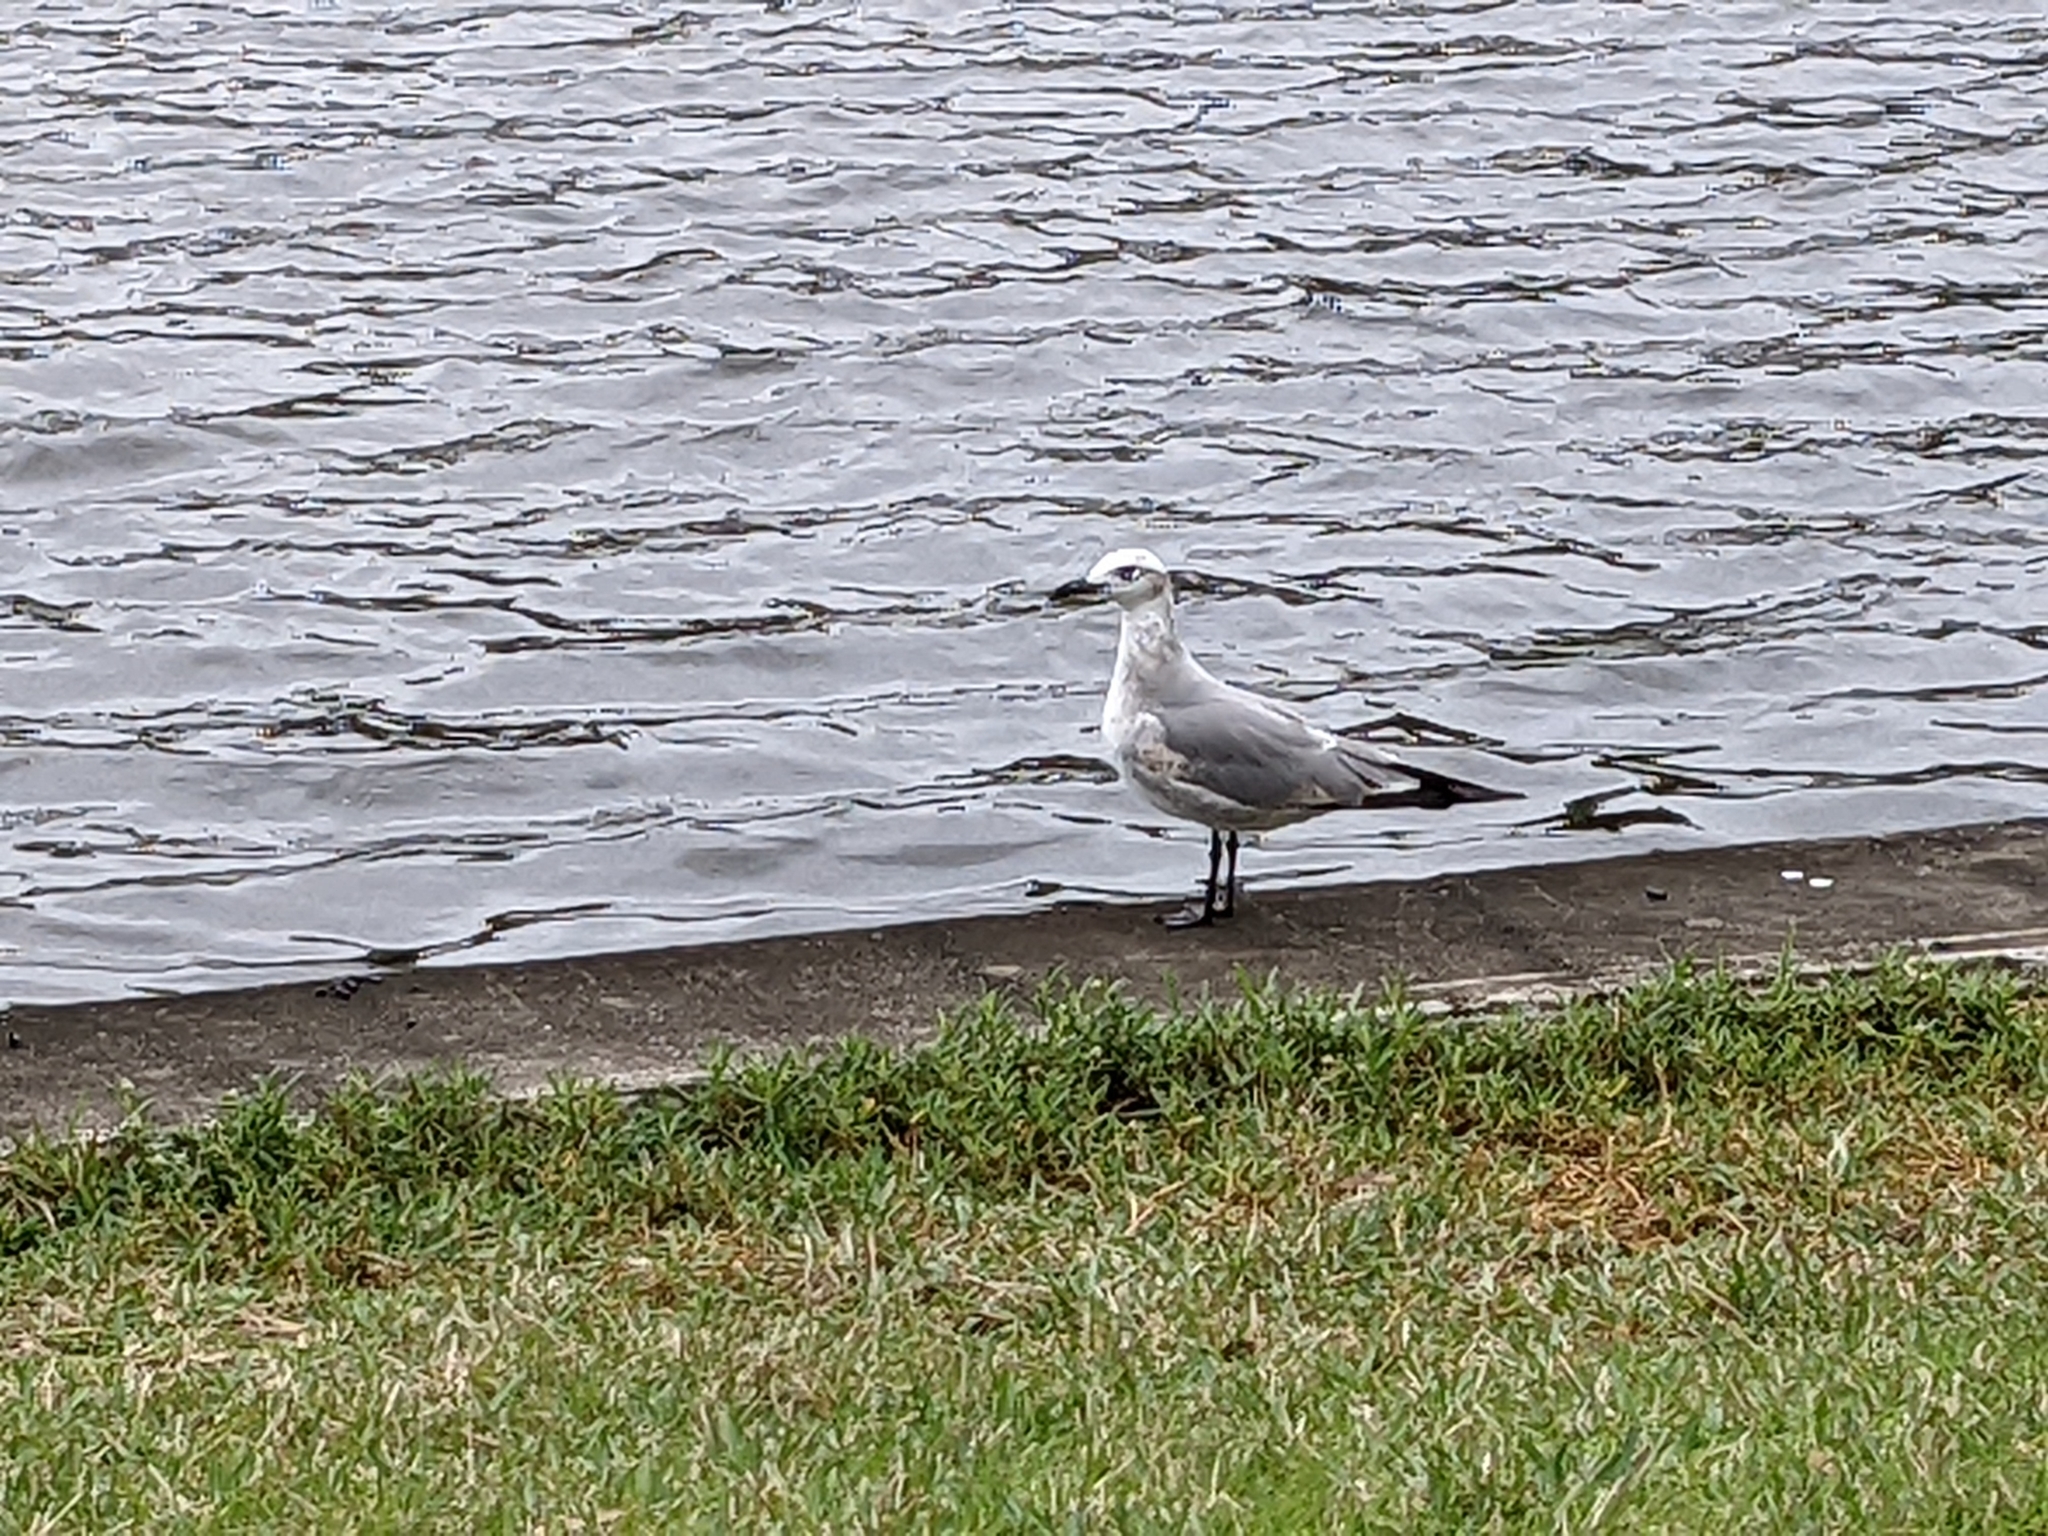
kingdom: Animalia
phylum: Chordata
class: Aves
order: Charadriiformes
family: Laridae
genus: Leucophaeus
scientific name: Leucophaeus atricilla
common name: Laughing gull
